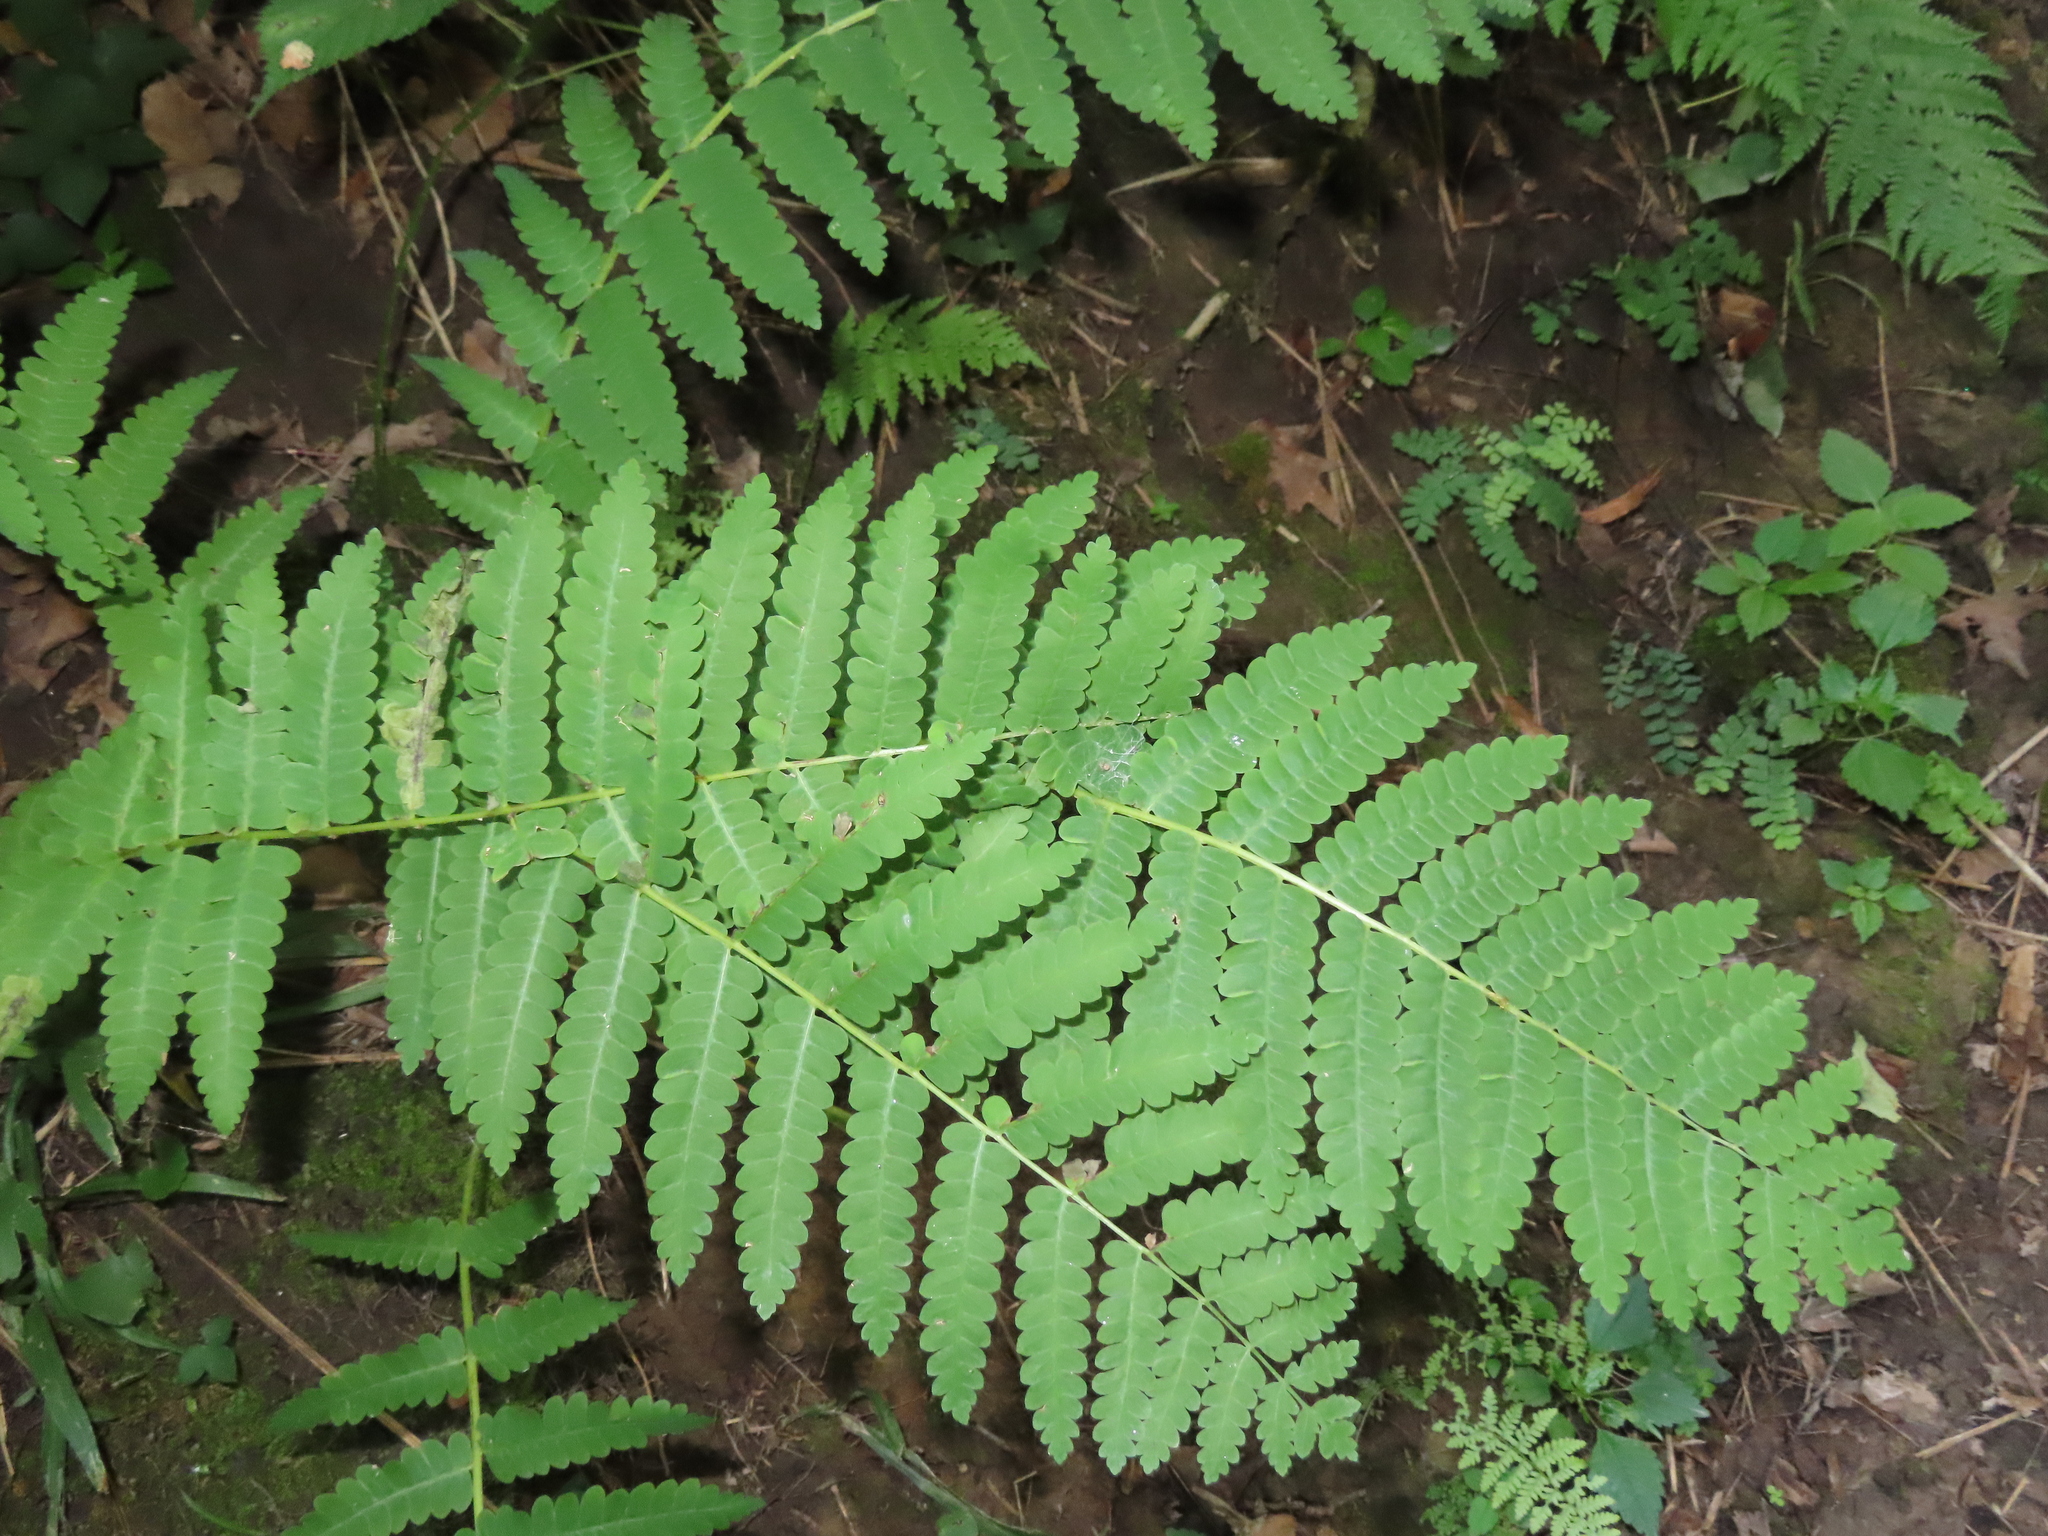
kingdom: Plantae
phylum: Tracheophyta
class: Polypodiopsida
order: Osmundales
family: Osmundaceae
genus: Claytosmunda
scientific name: Claytosmunda claytoniana
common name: Clayton's fern
